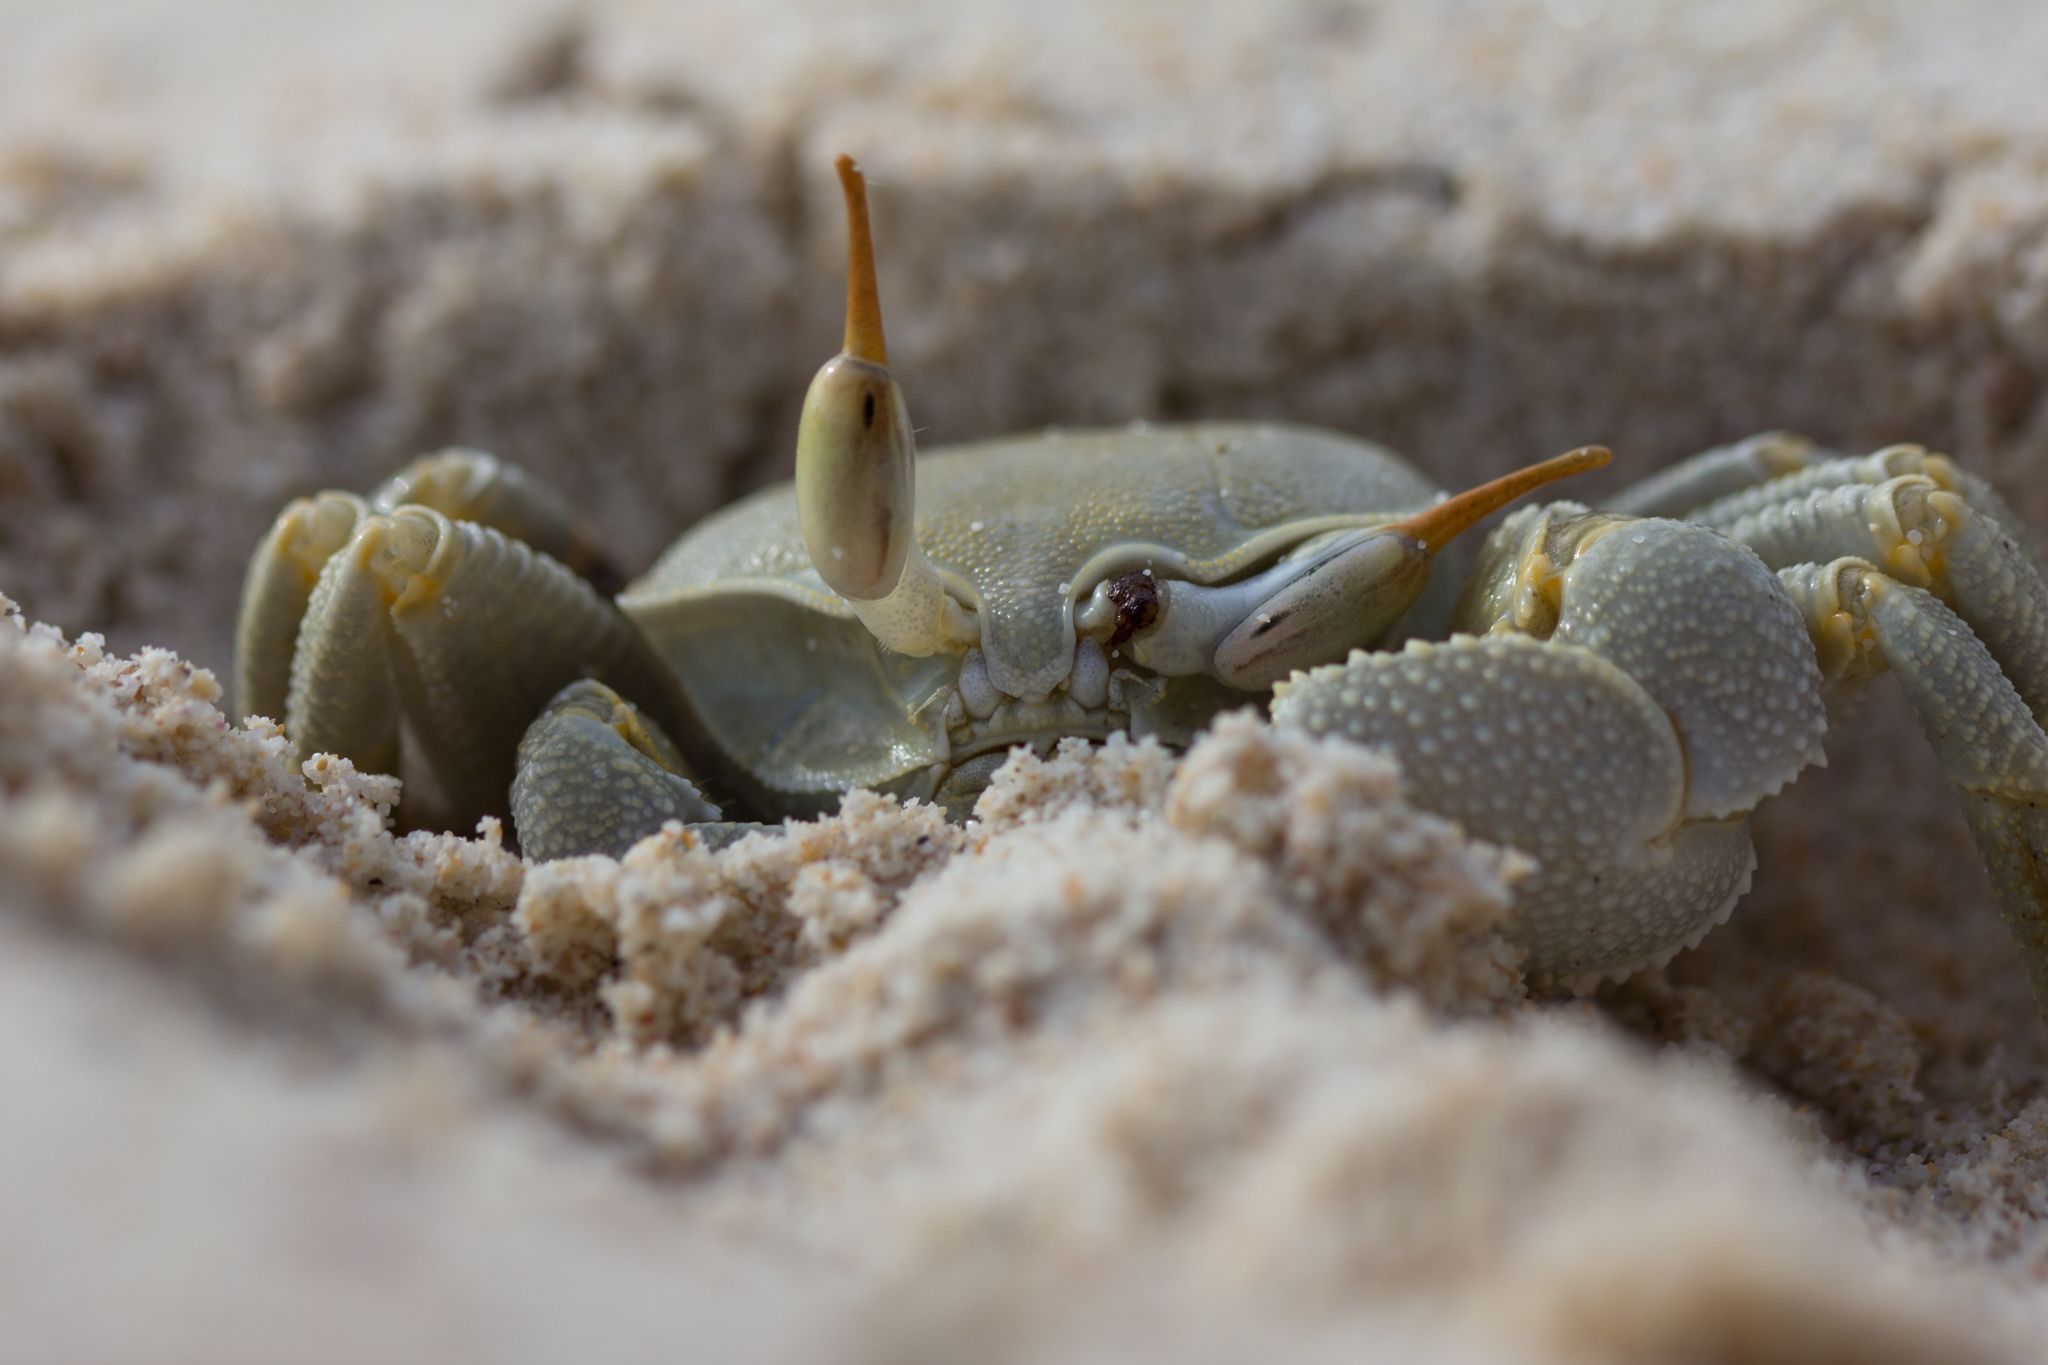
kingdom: Animalia
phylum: Arthropoda
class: Malacostraca
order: Decapoda
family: Ocypodidae
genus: Ocypode
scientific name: Ocypode ceratophthalmus
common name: Indo-pacific ghost crab
